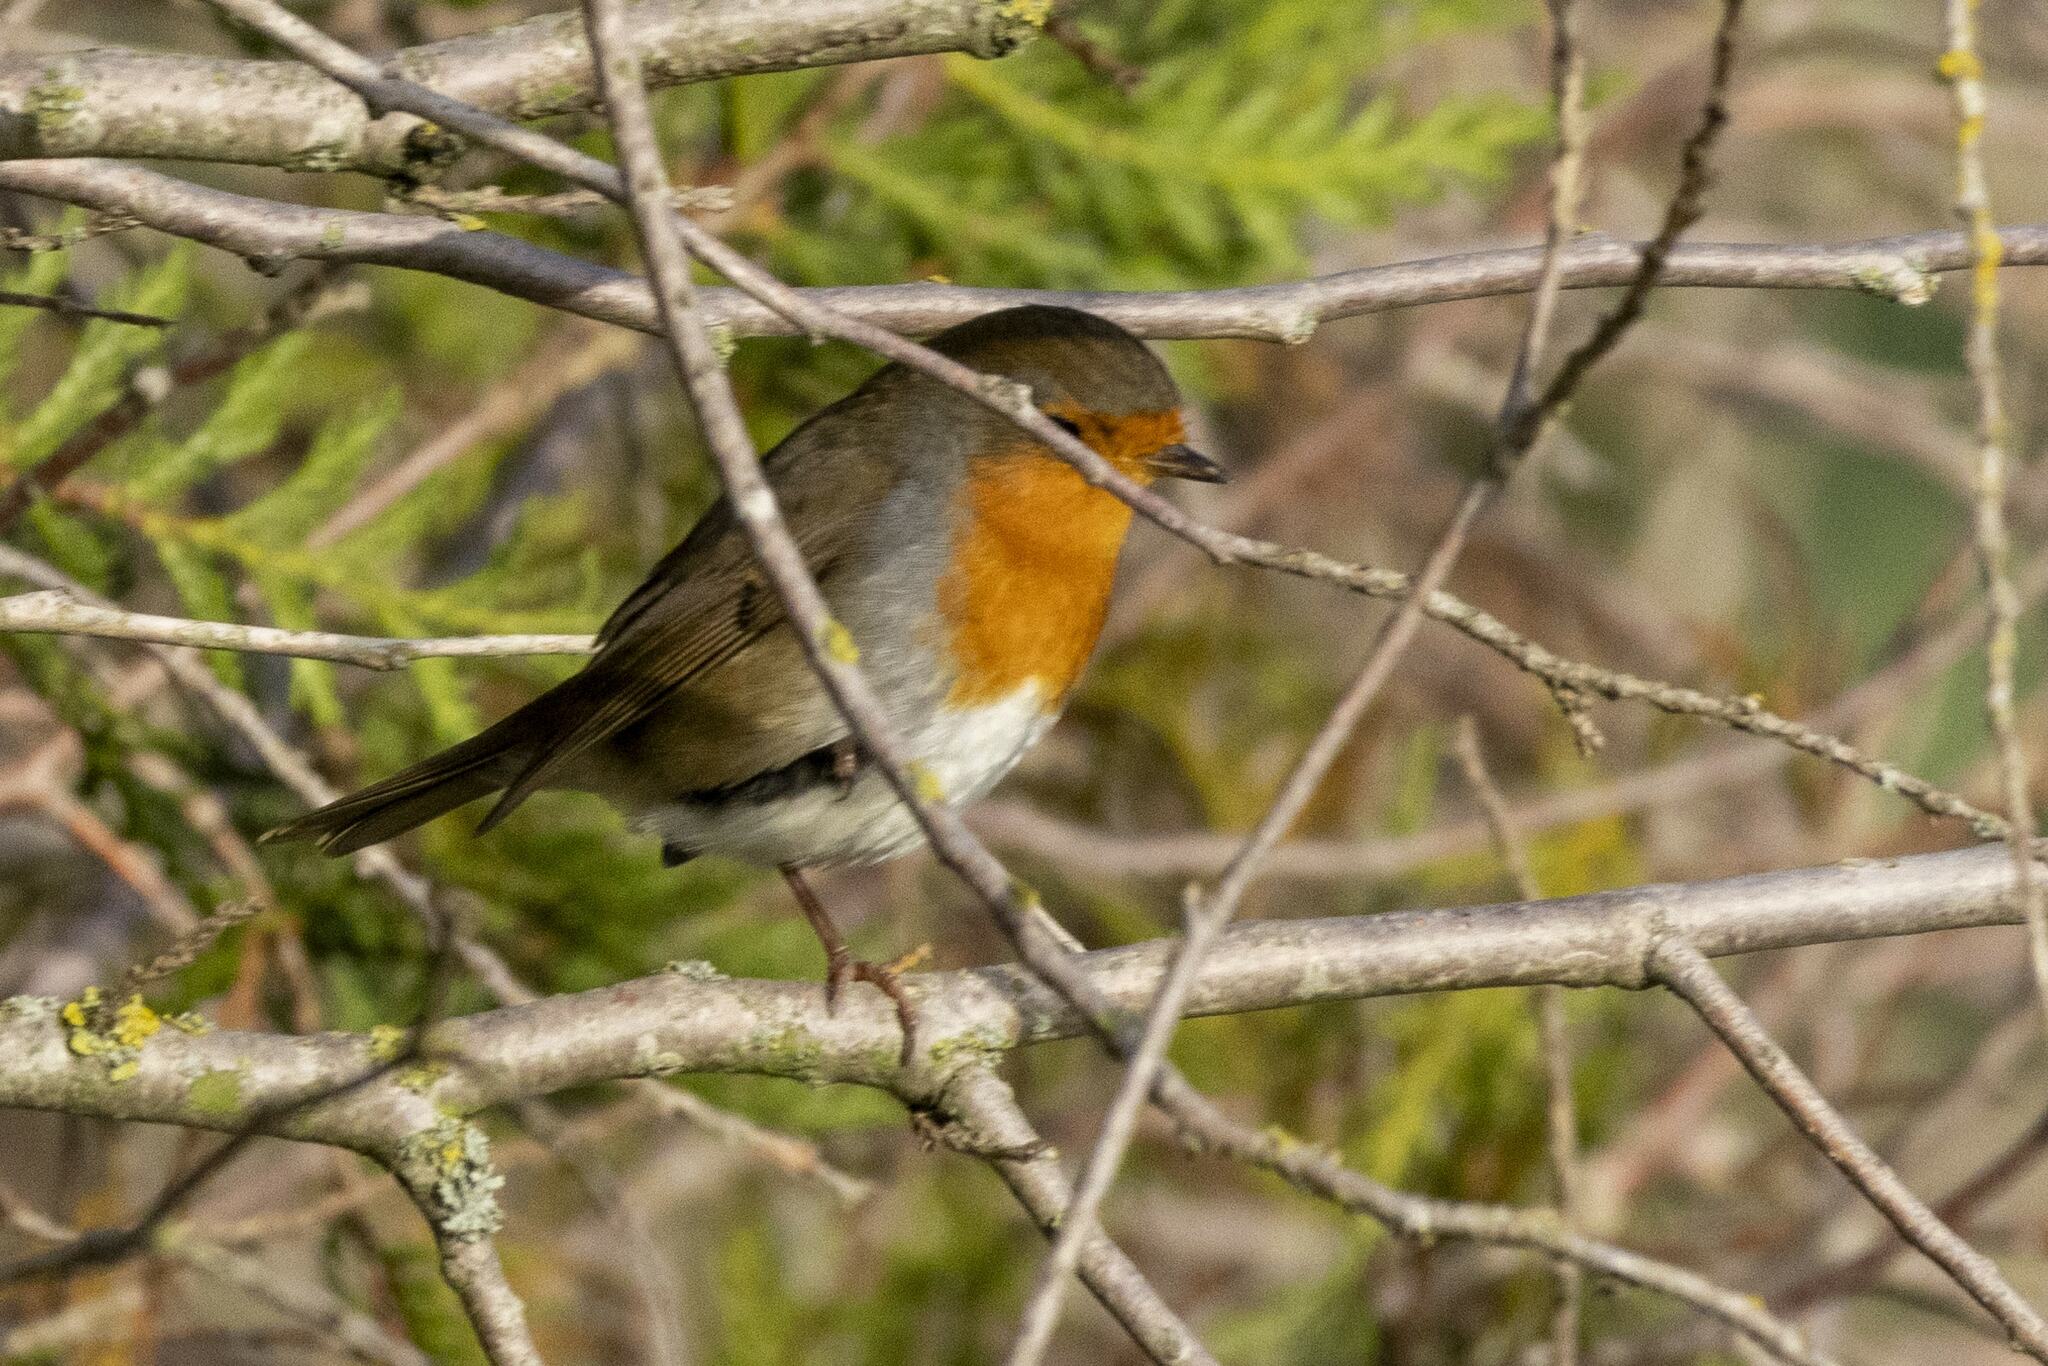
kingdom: Animalia
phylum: Chordata
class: Aves
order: Passeriformes
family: Muscicapidae
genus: Erithacus
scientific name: Erithacus rubecula
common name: European robin
